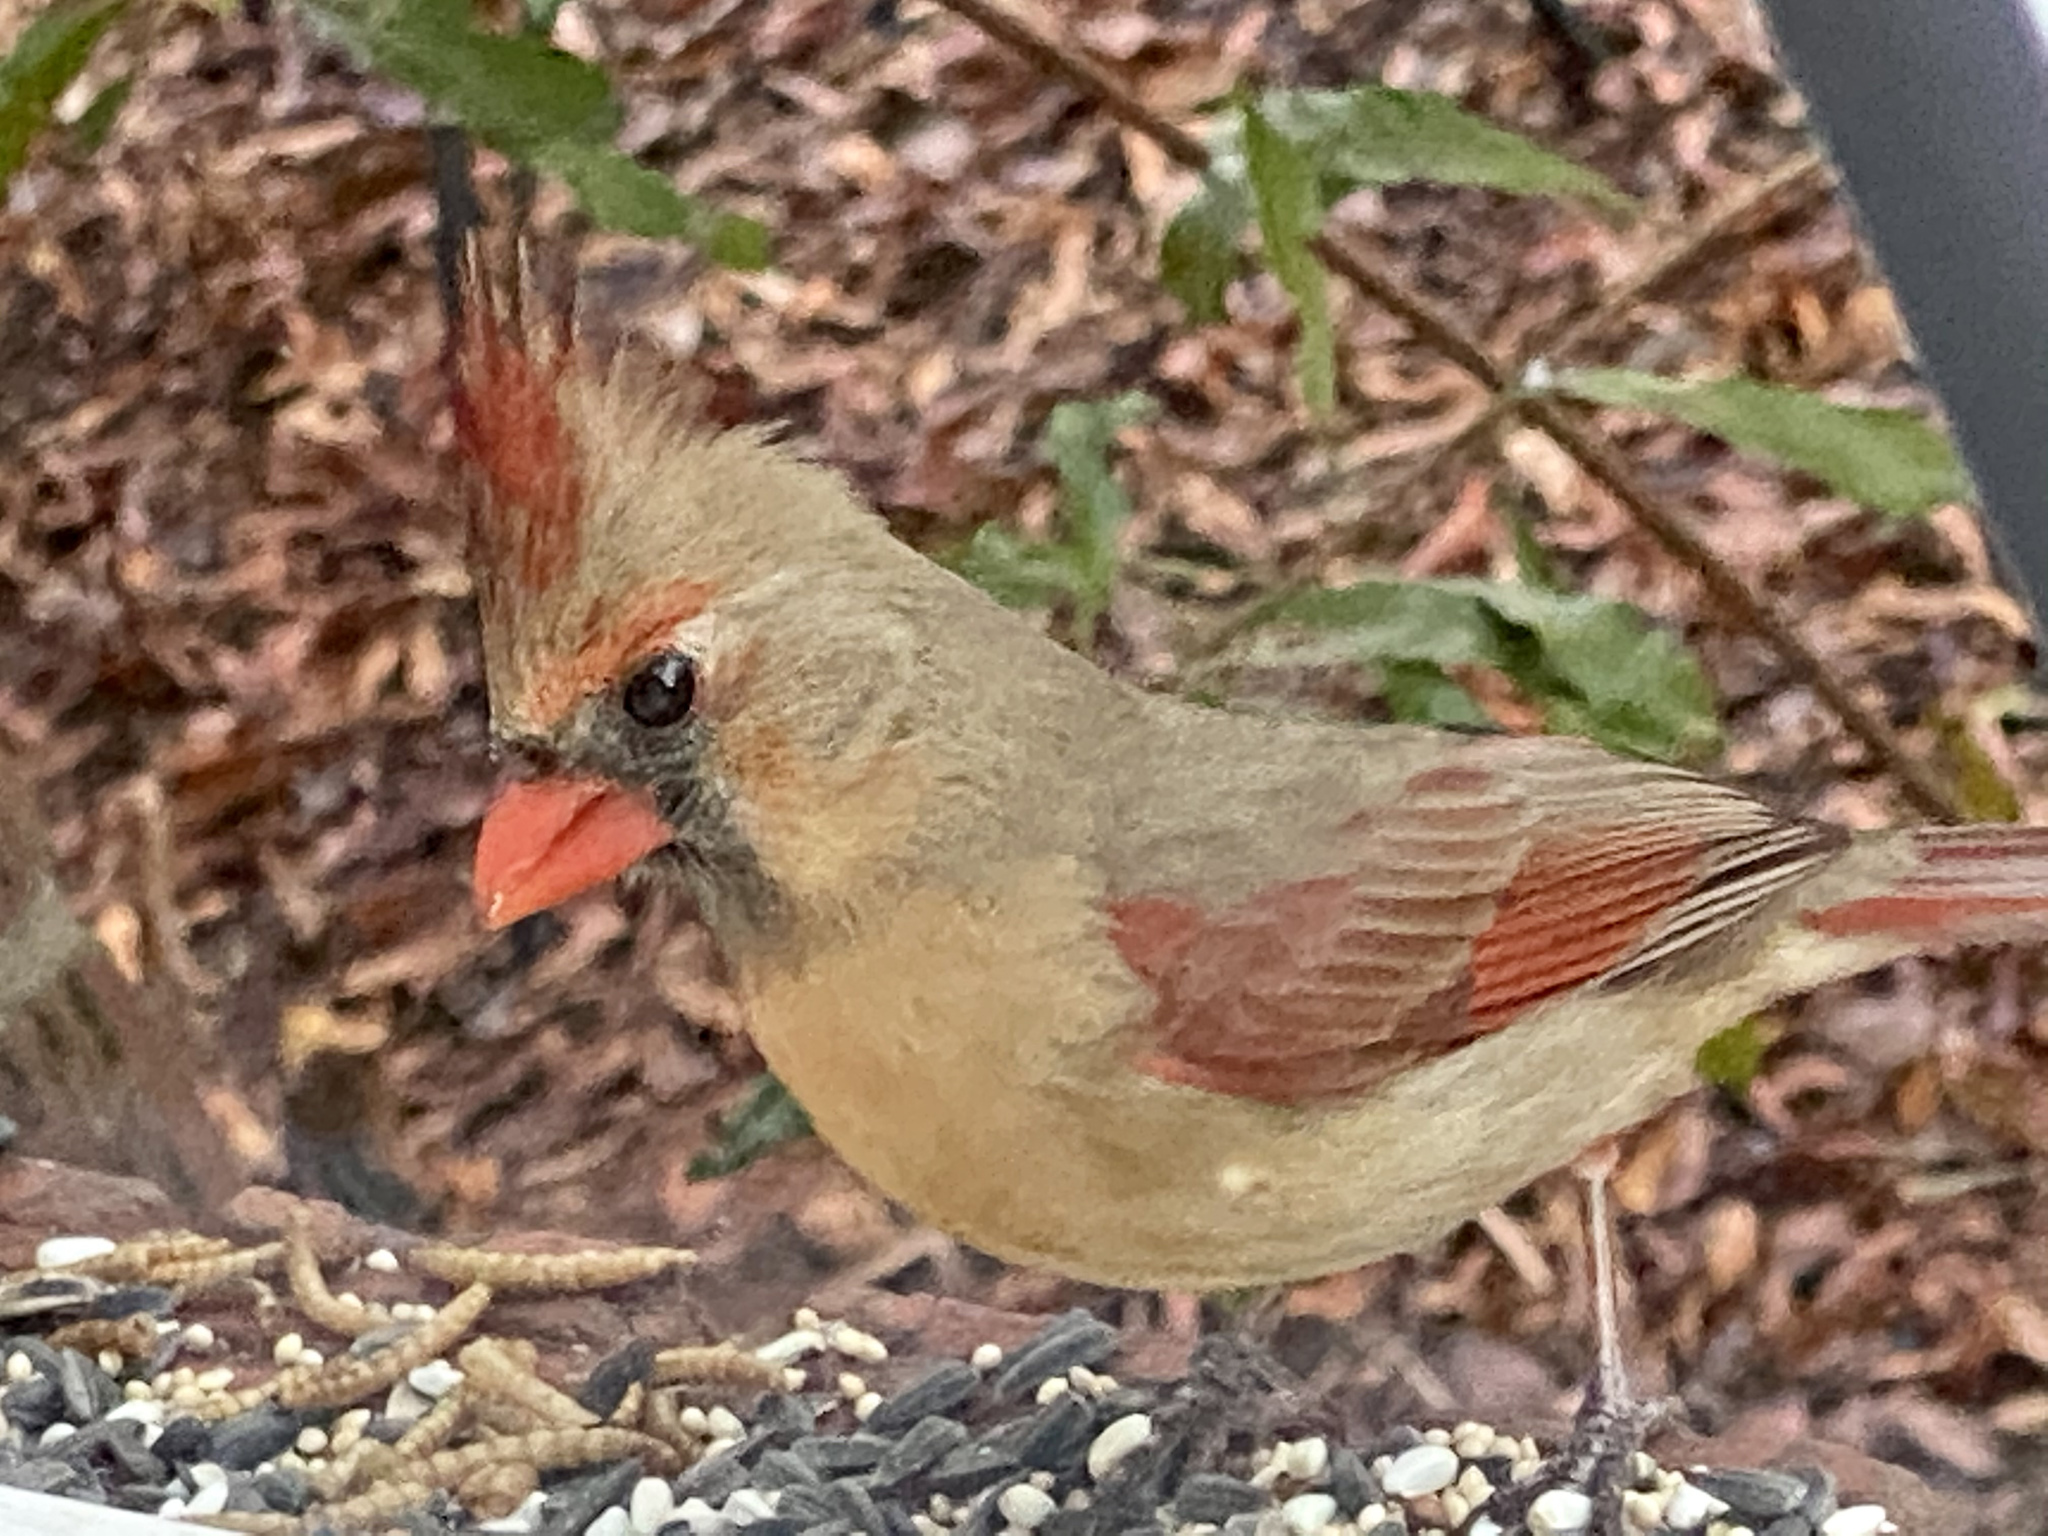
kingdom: Animalia
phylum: Chordata
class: Aves
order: Passeriformes
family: Cardinalidae
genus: Cardinalis
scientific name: Cardinalis cardinalis
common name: Northern cardinal
